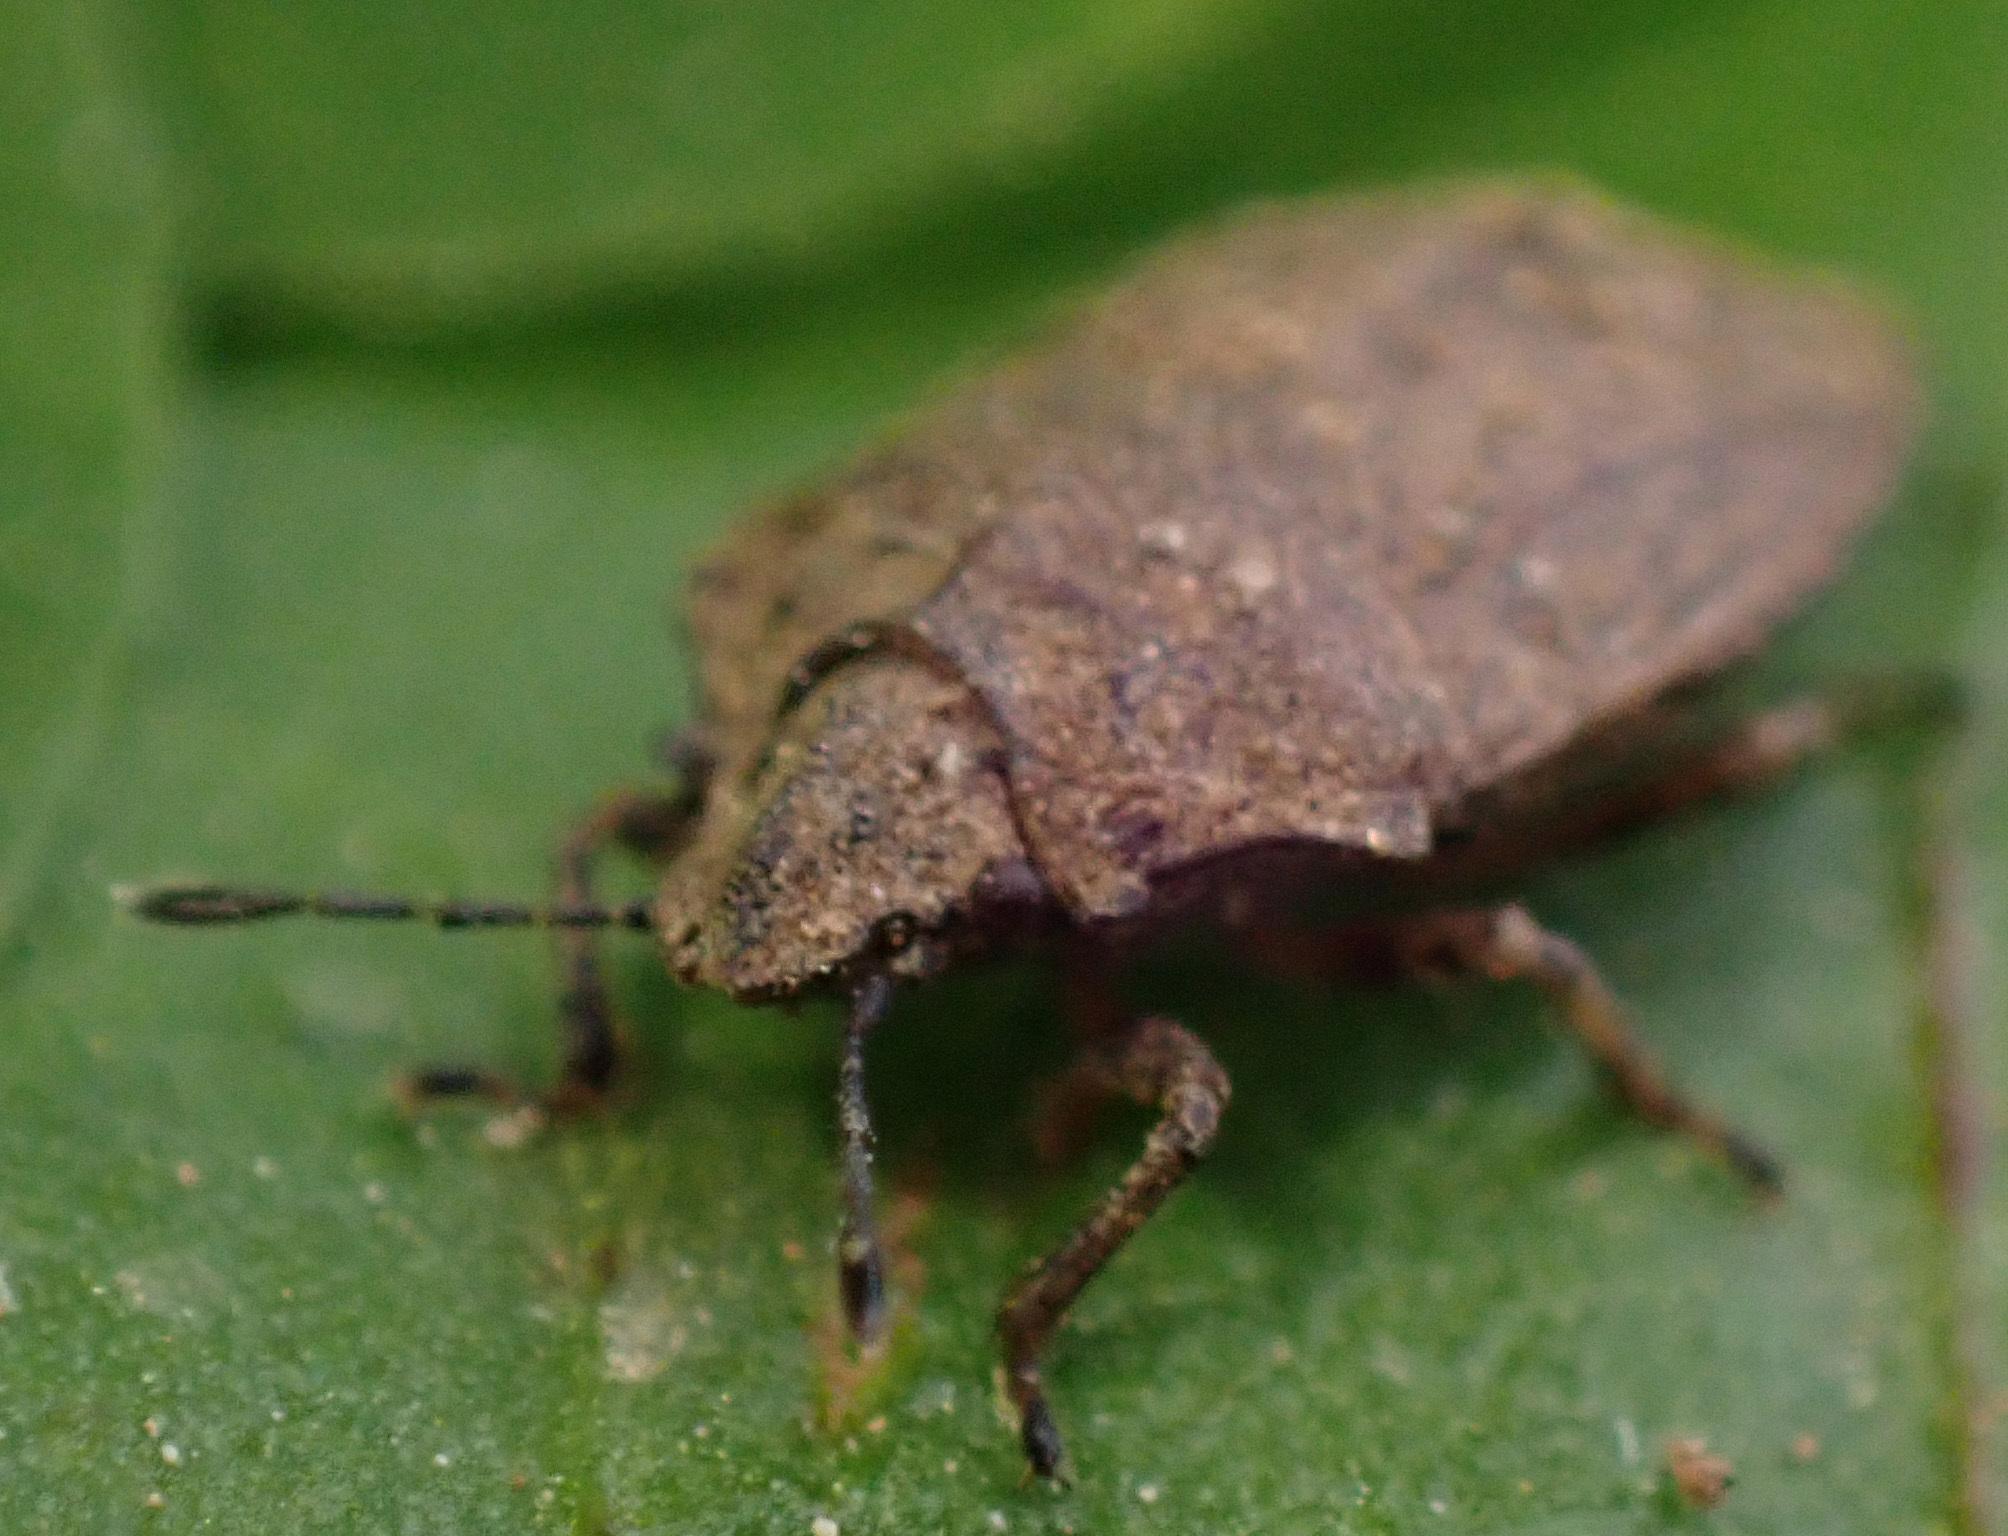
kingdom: Animalia
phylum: Arthropoda
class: Insecta
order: Hemiptera
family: Pentatomidae
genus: Podops
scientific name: Podops inunctus
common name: Turtle bug
